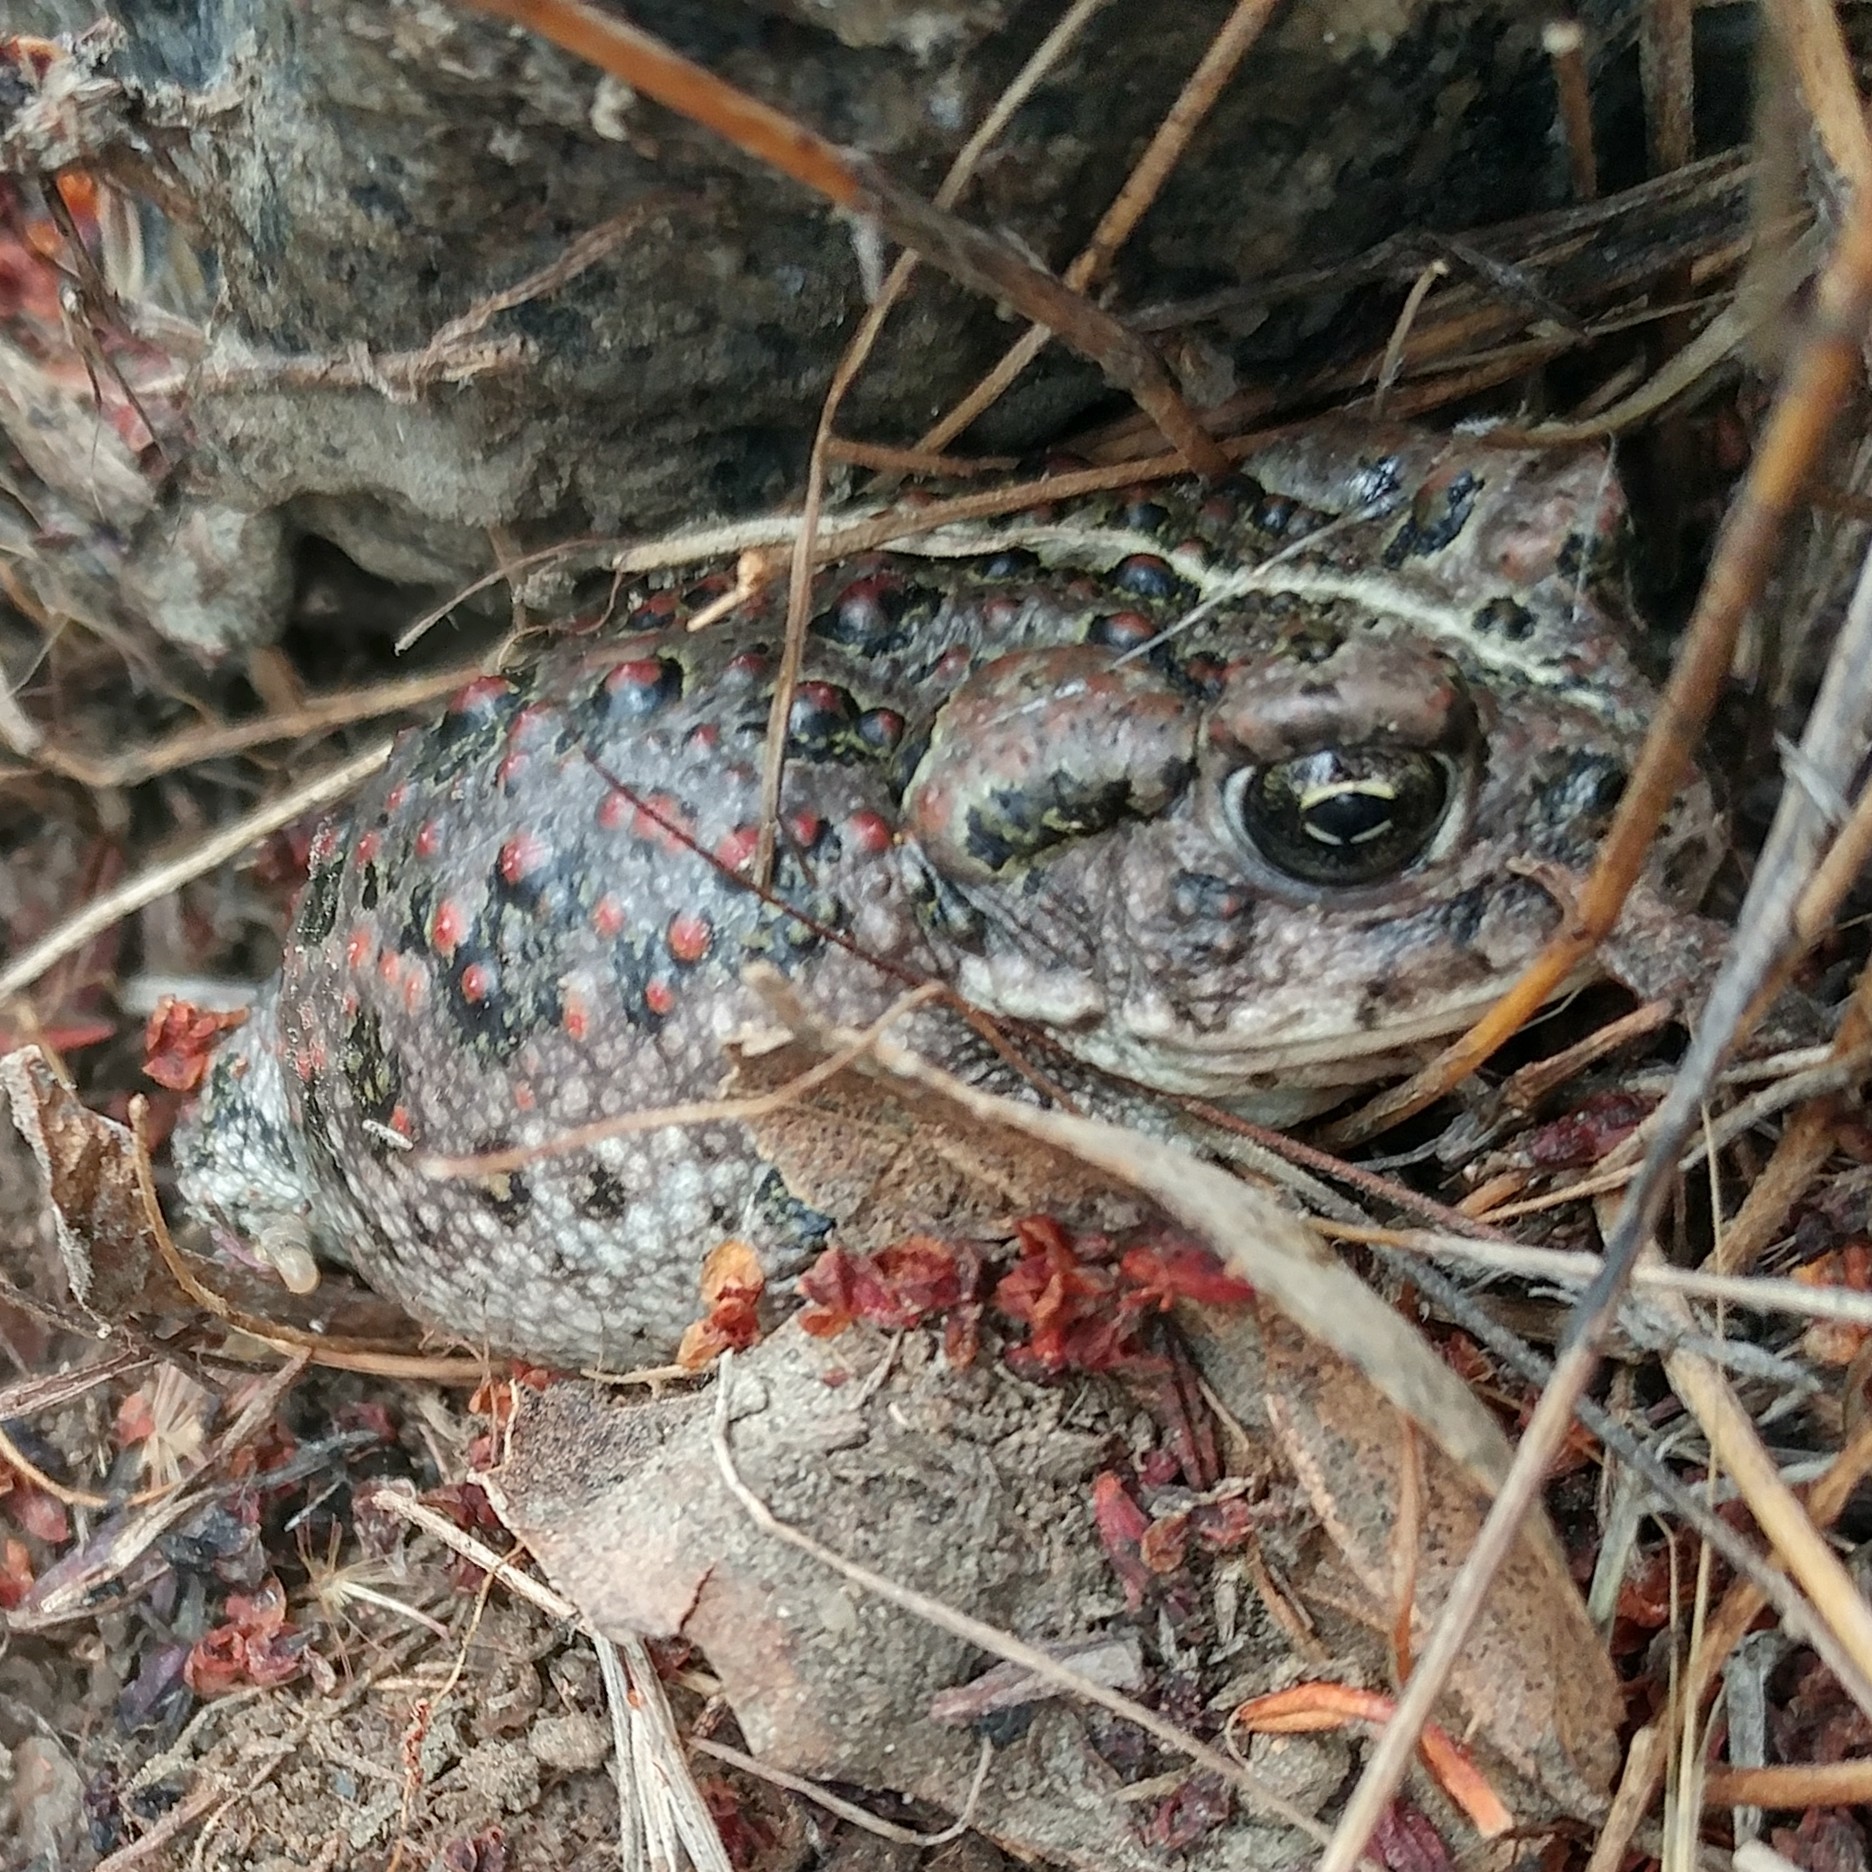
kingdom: Animalia
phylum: Chordata
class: Amphibia
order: Anura
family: Bufonidae
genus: Anaxyrus
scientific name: Anaxyrus boreas
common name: Western toad
